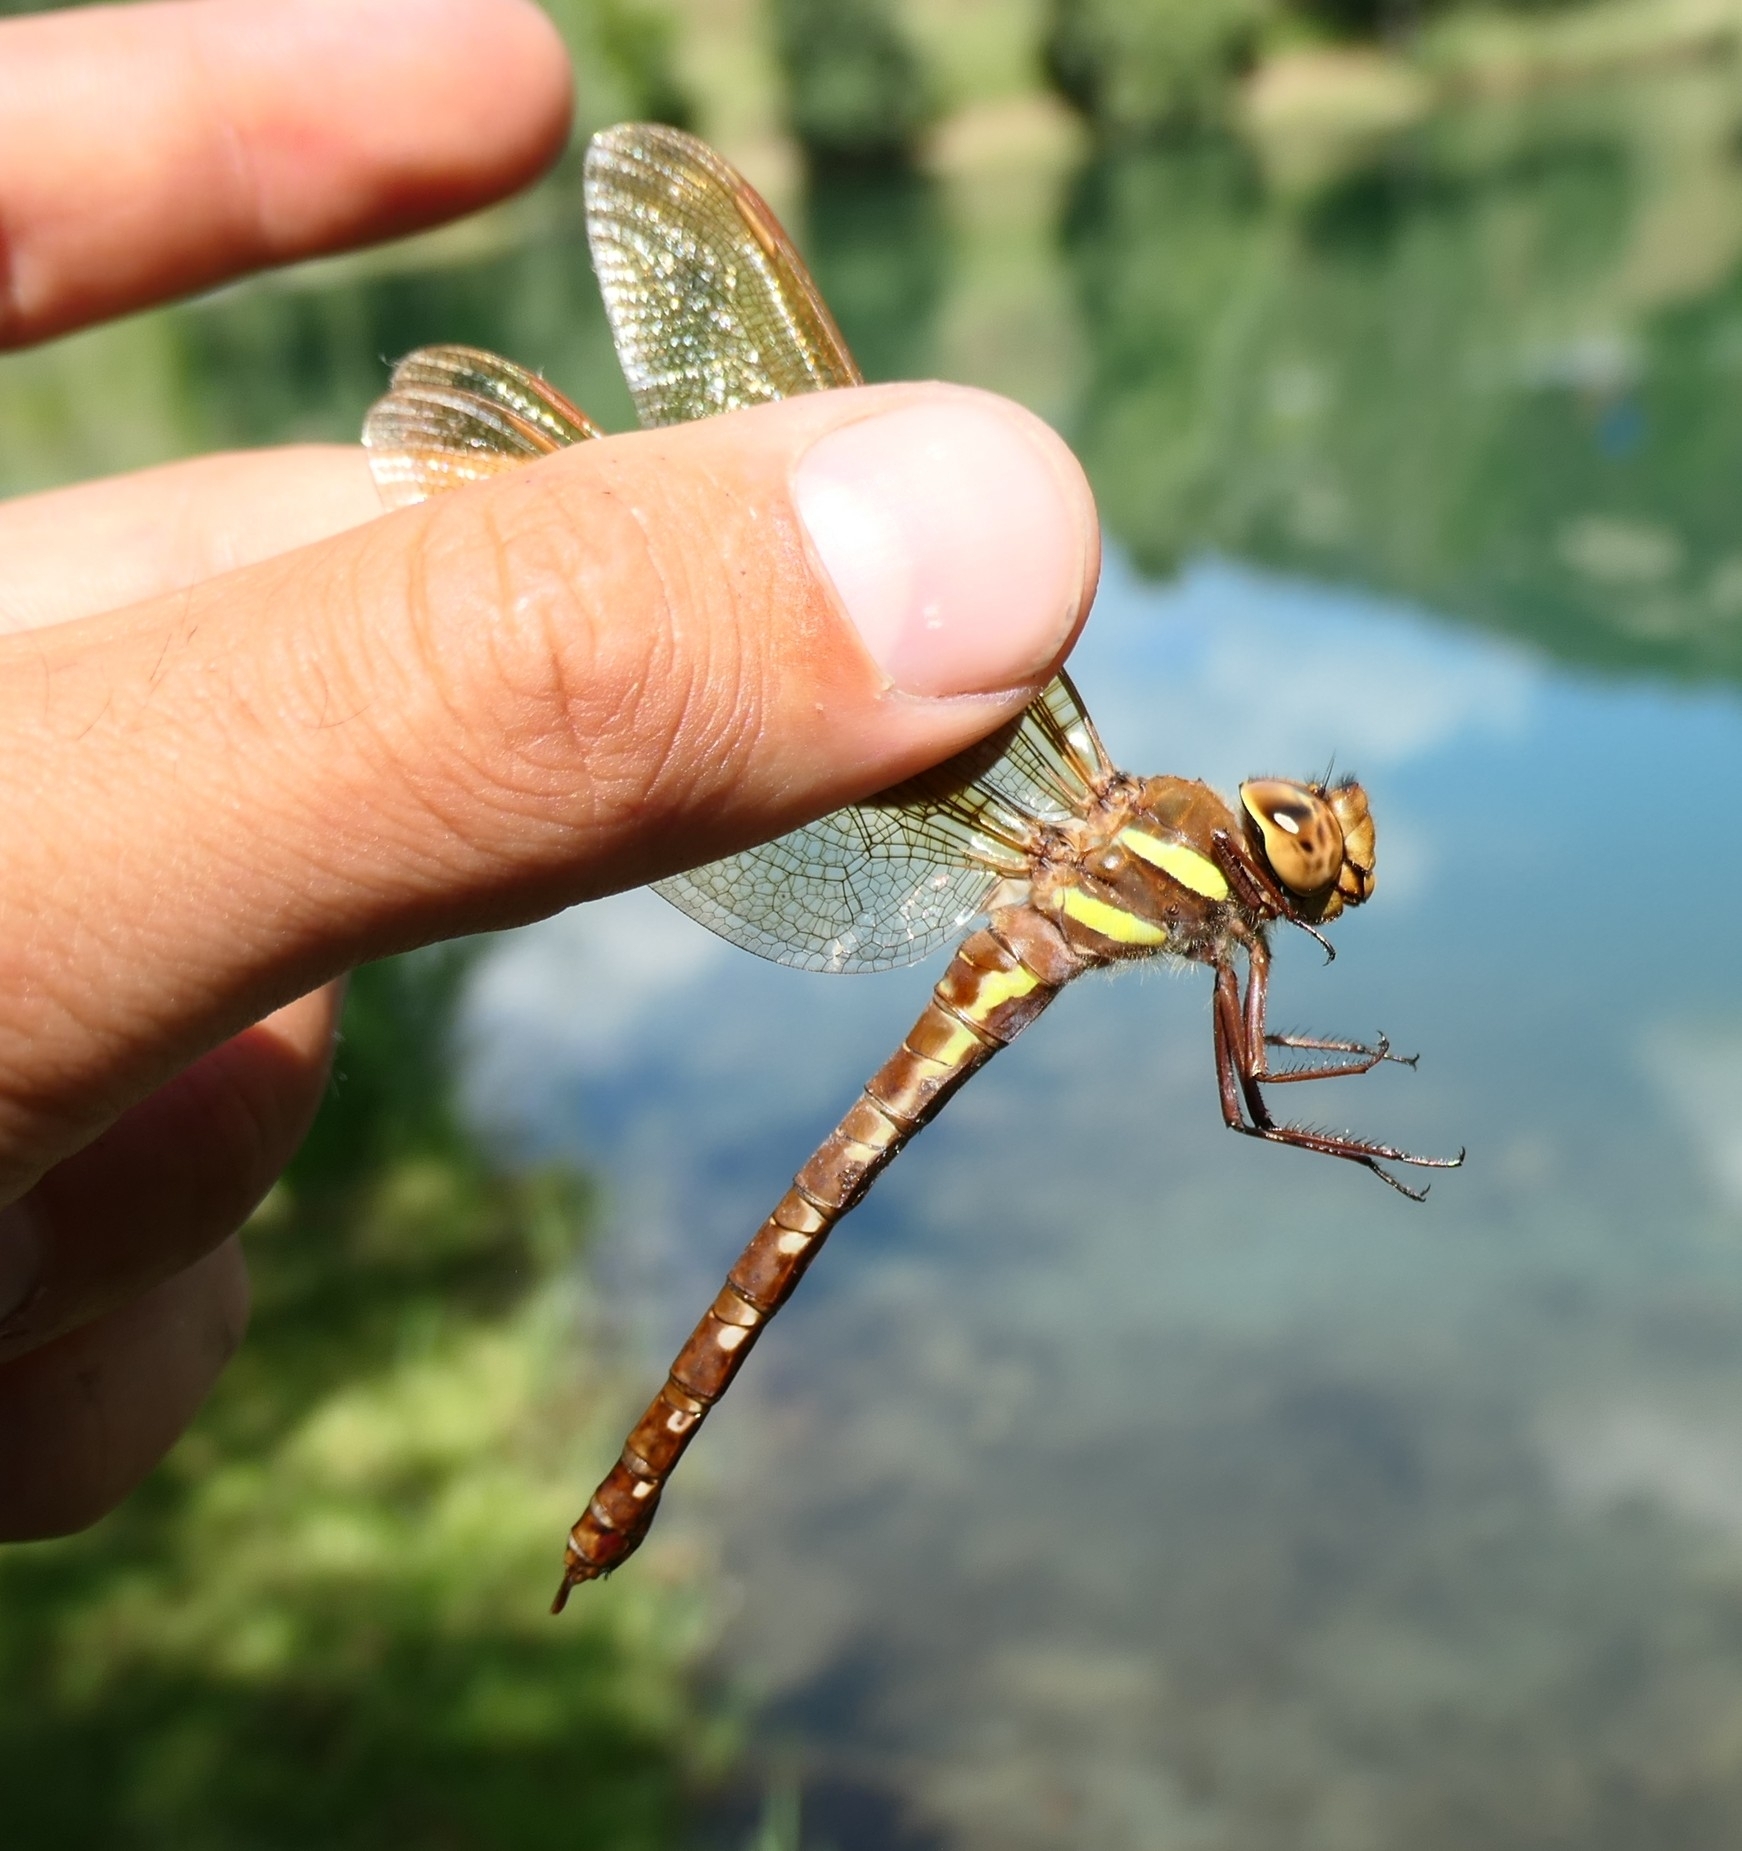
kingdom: Animalia
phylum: Arthropoda
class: Insecta
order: Odonata
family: Aeshnidae
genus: Aeshna
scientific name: Aeshna grandis
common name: Brown hawker
